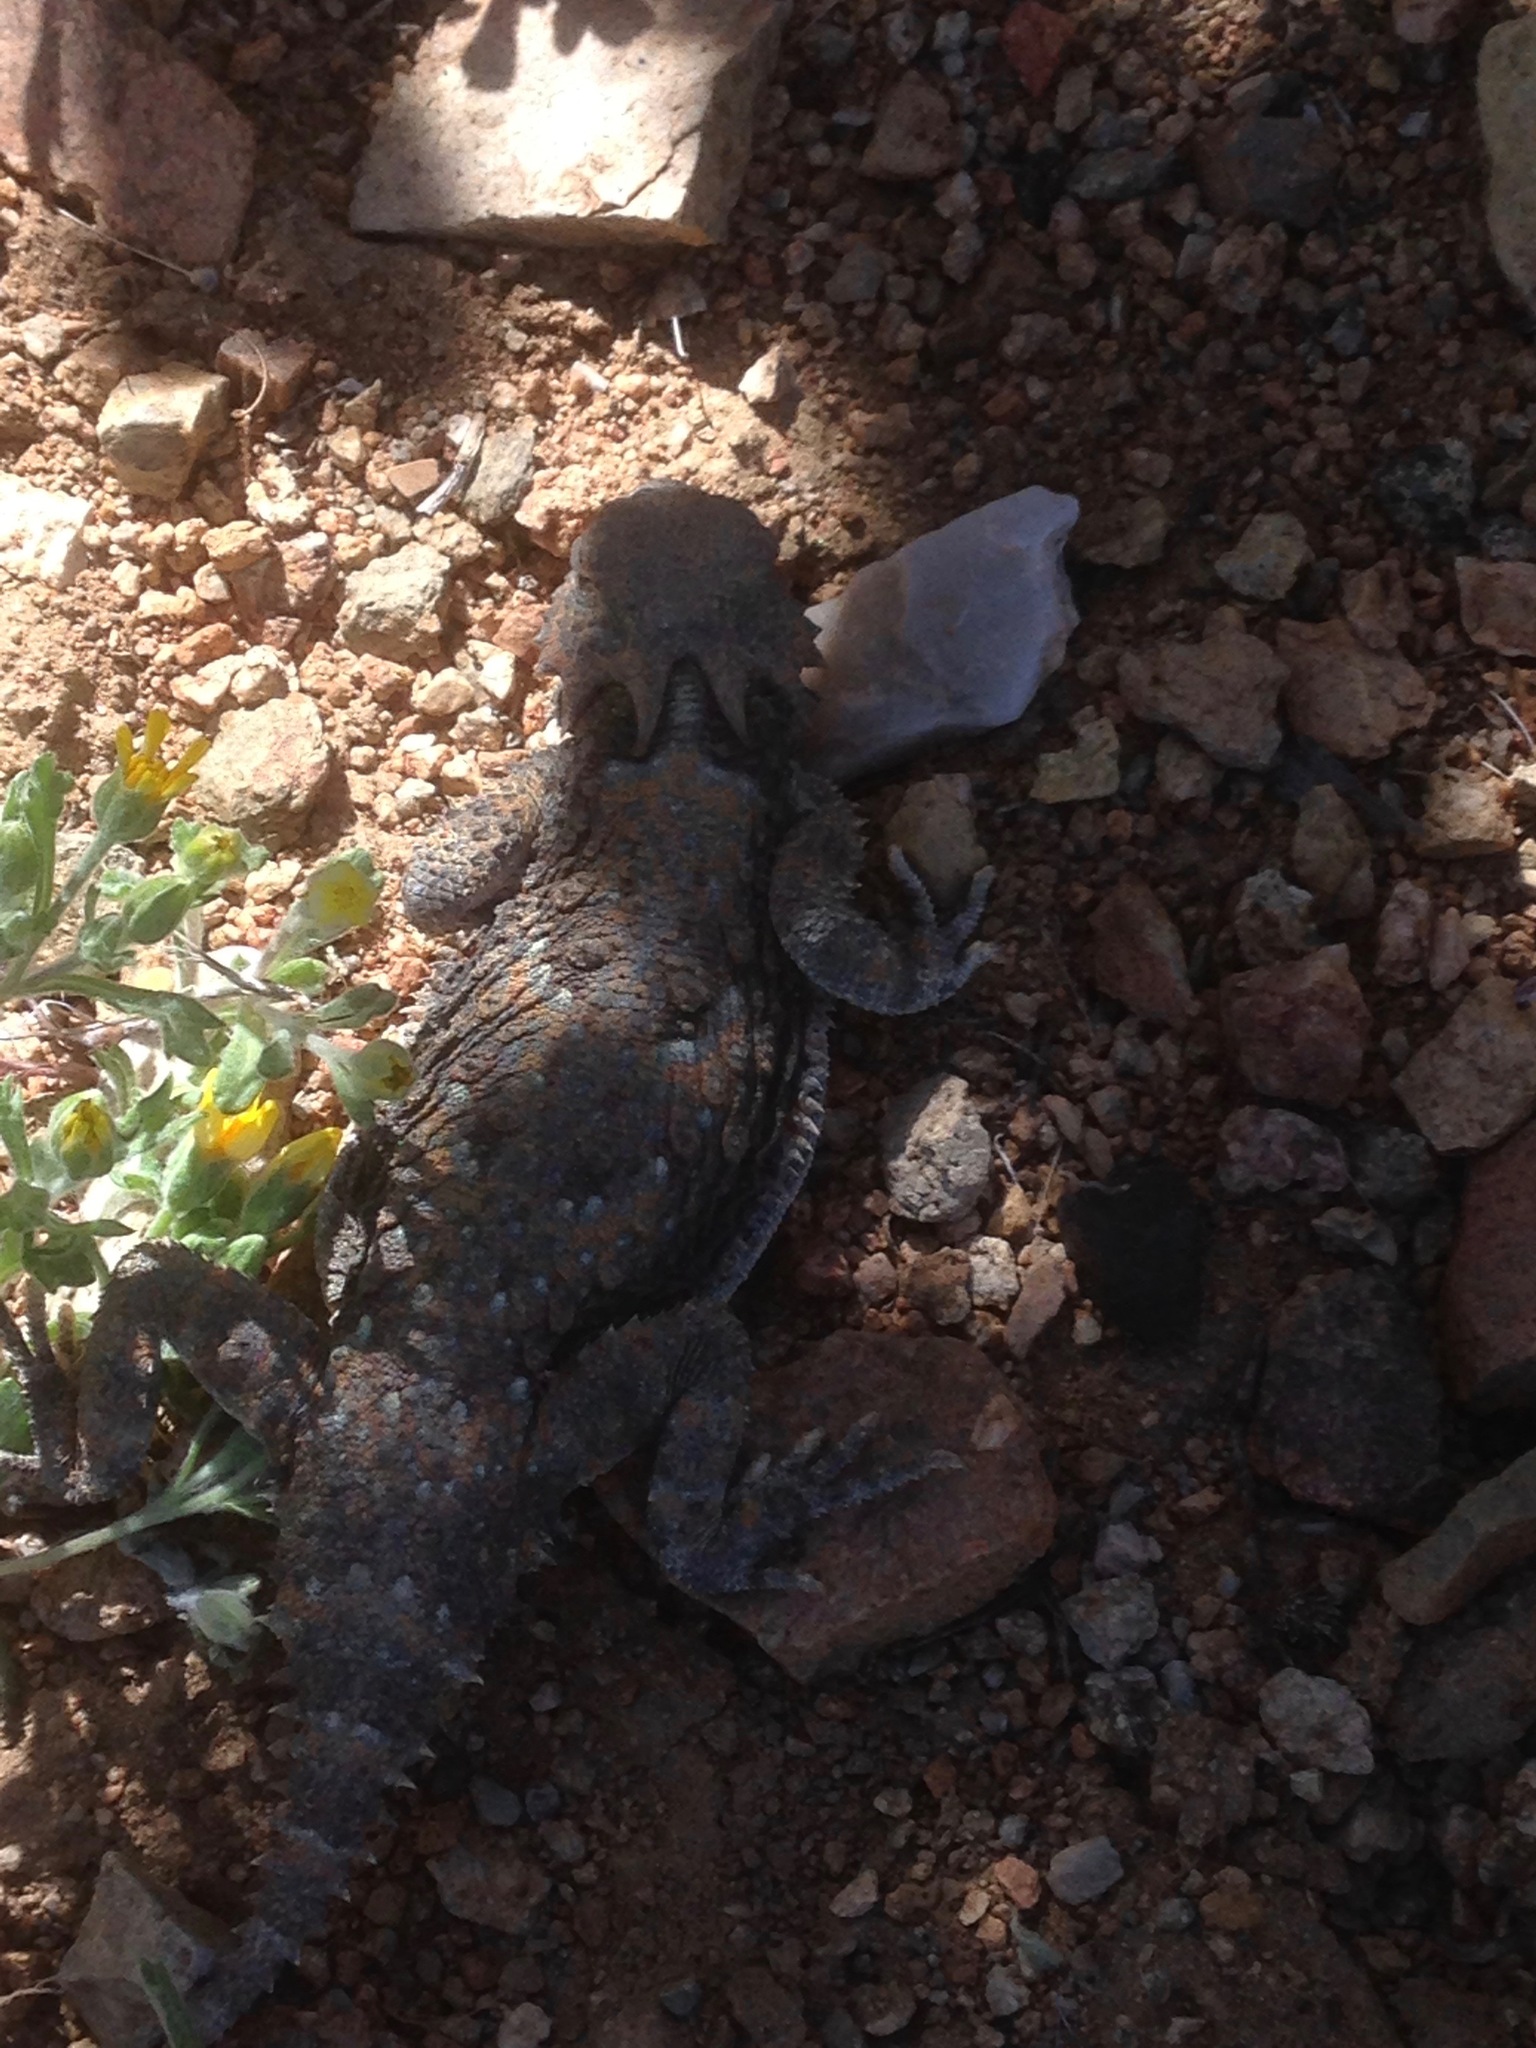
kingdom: Animalia
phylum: Chordata
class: Squamata
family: Phrynosomatidae
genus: Phrynosoma
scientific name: Phrynosoma platyrhinos
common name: Desert horned lizard
